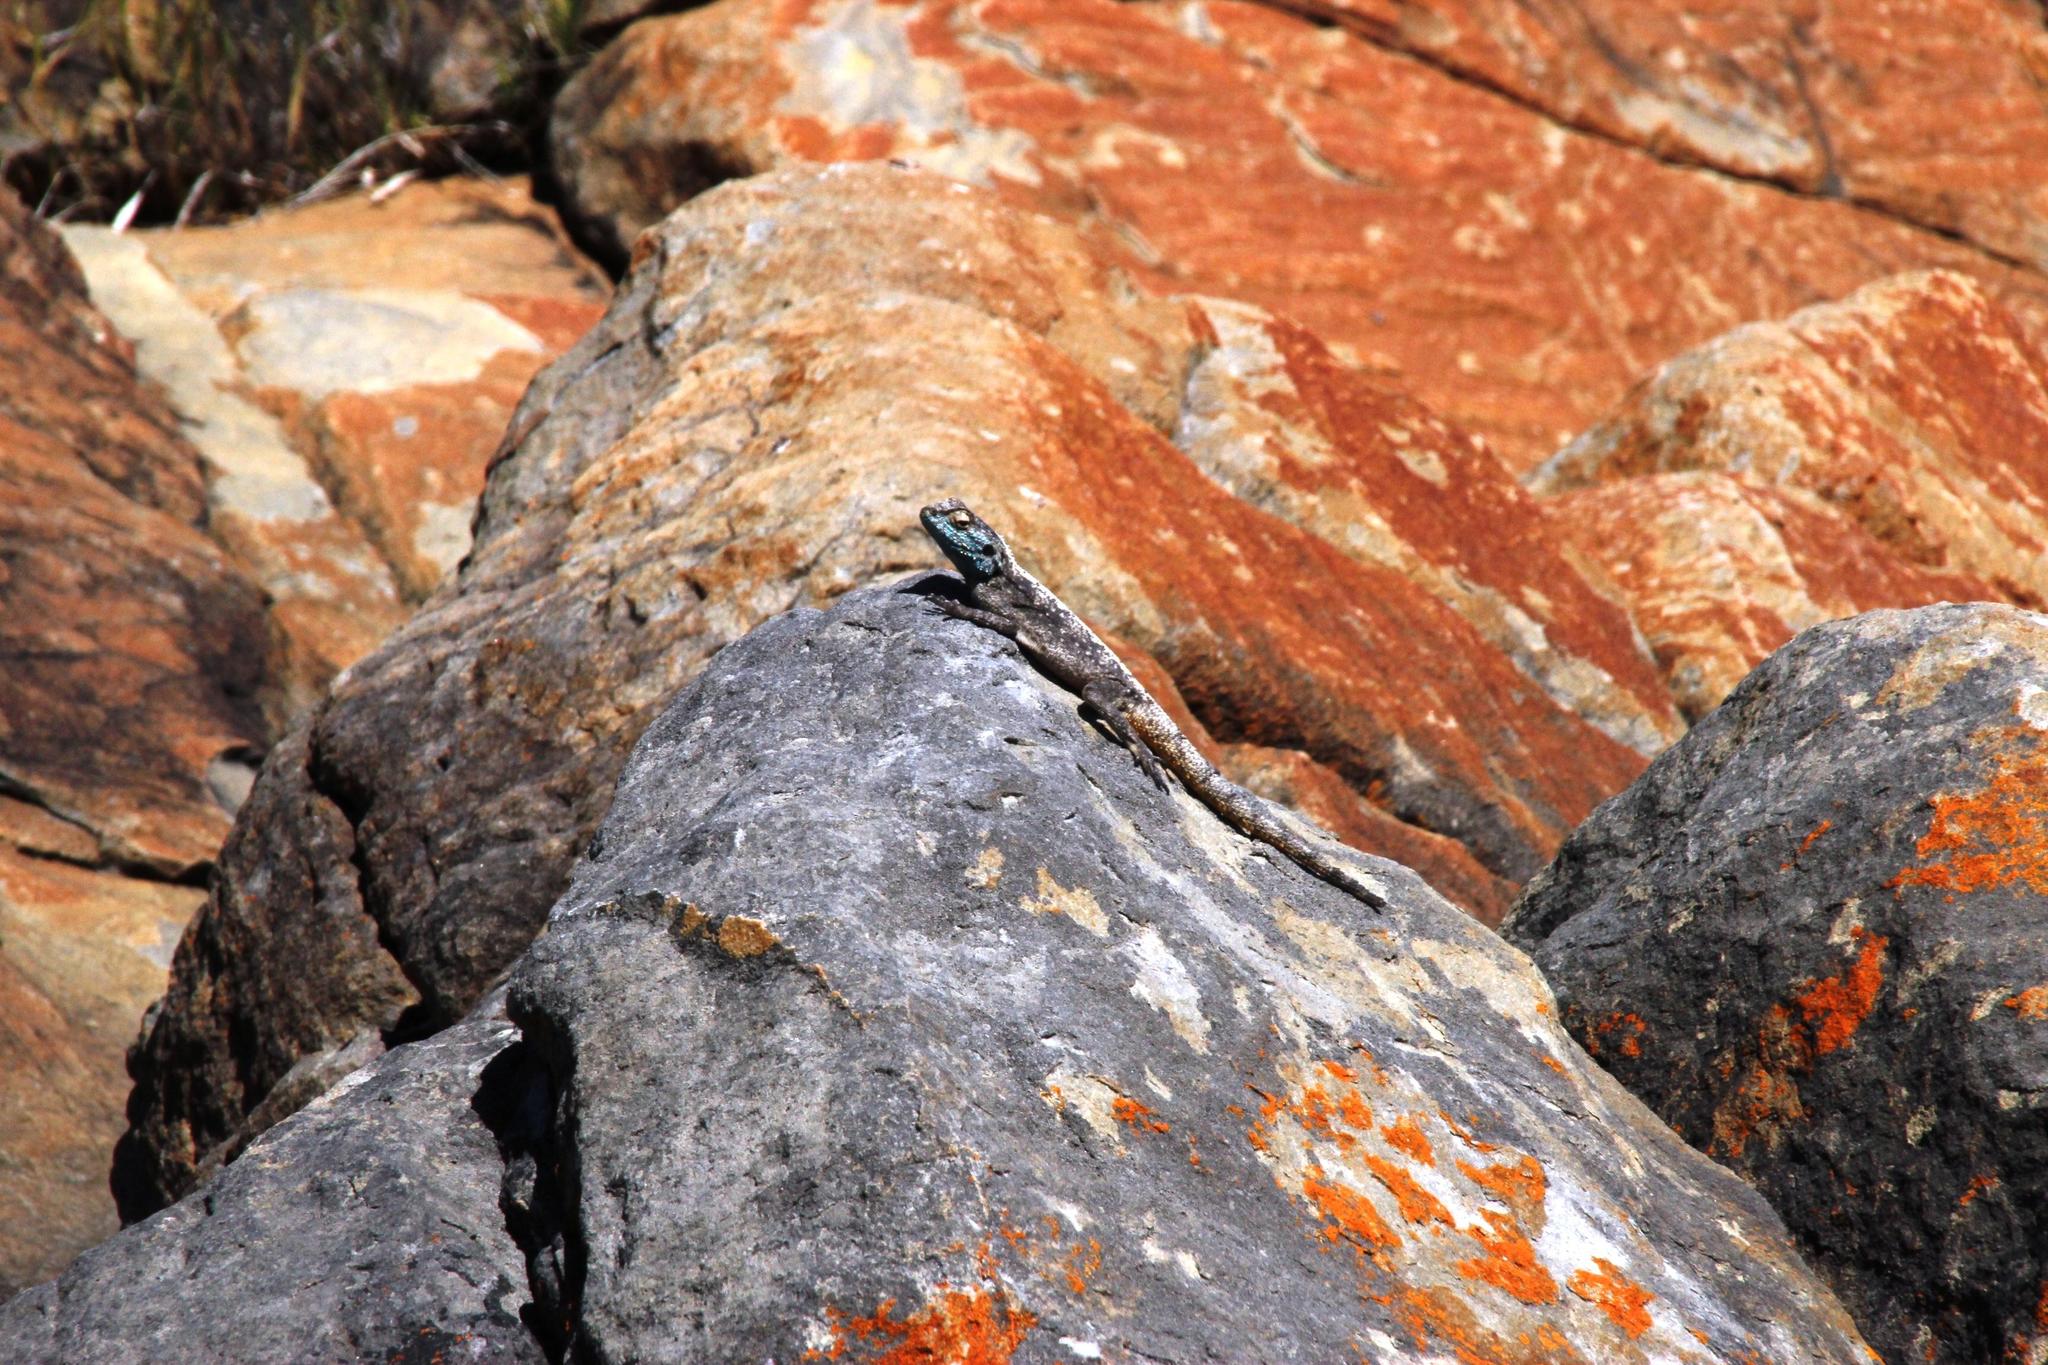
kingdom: Animalia
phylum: Chordata
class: Squamata
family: Agamidae
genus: Agama
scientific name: Agama atra
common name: Southern african rock agama
